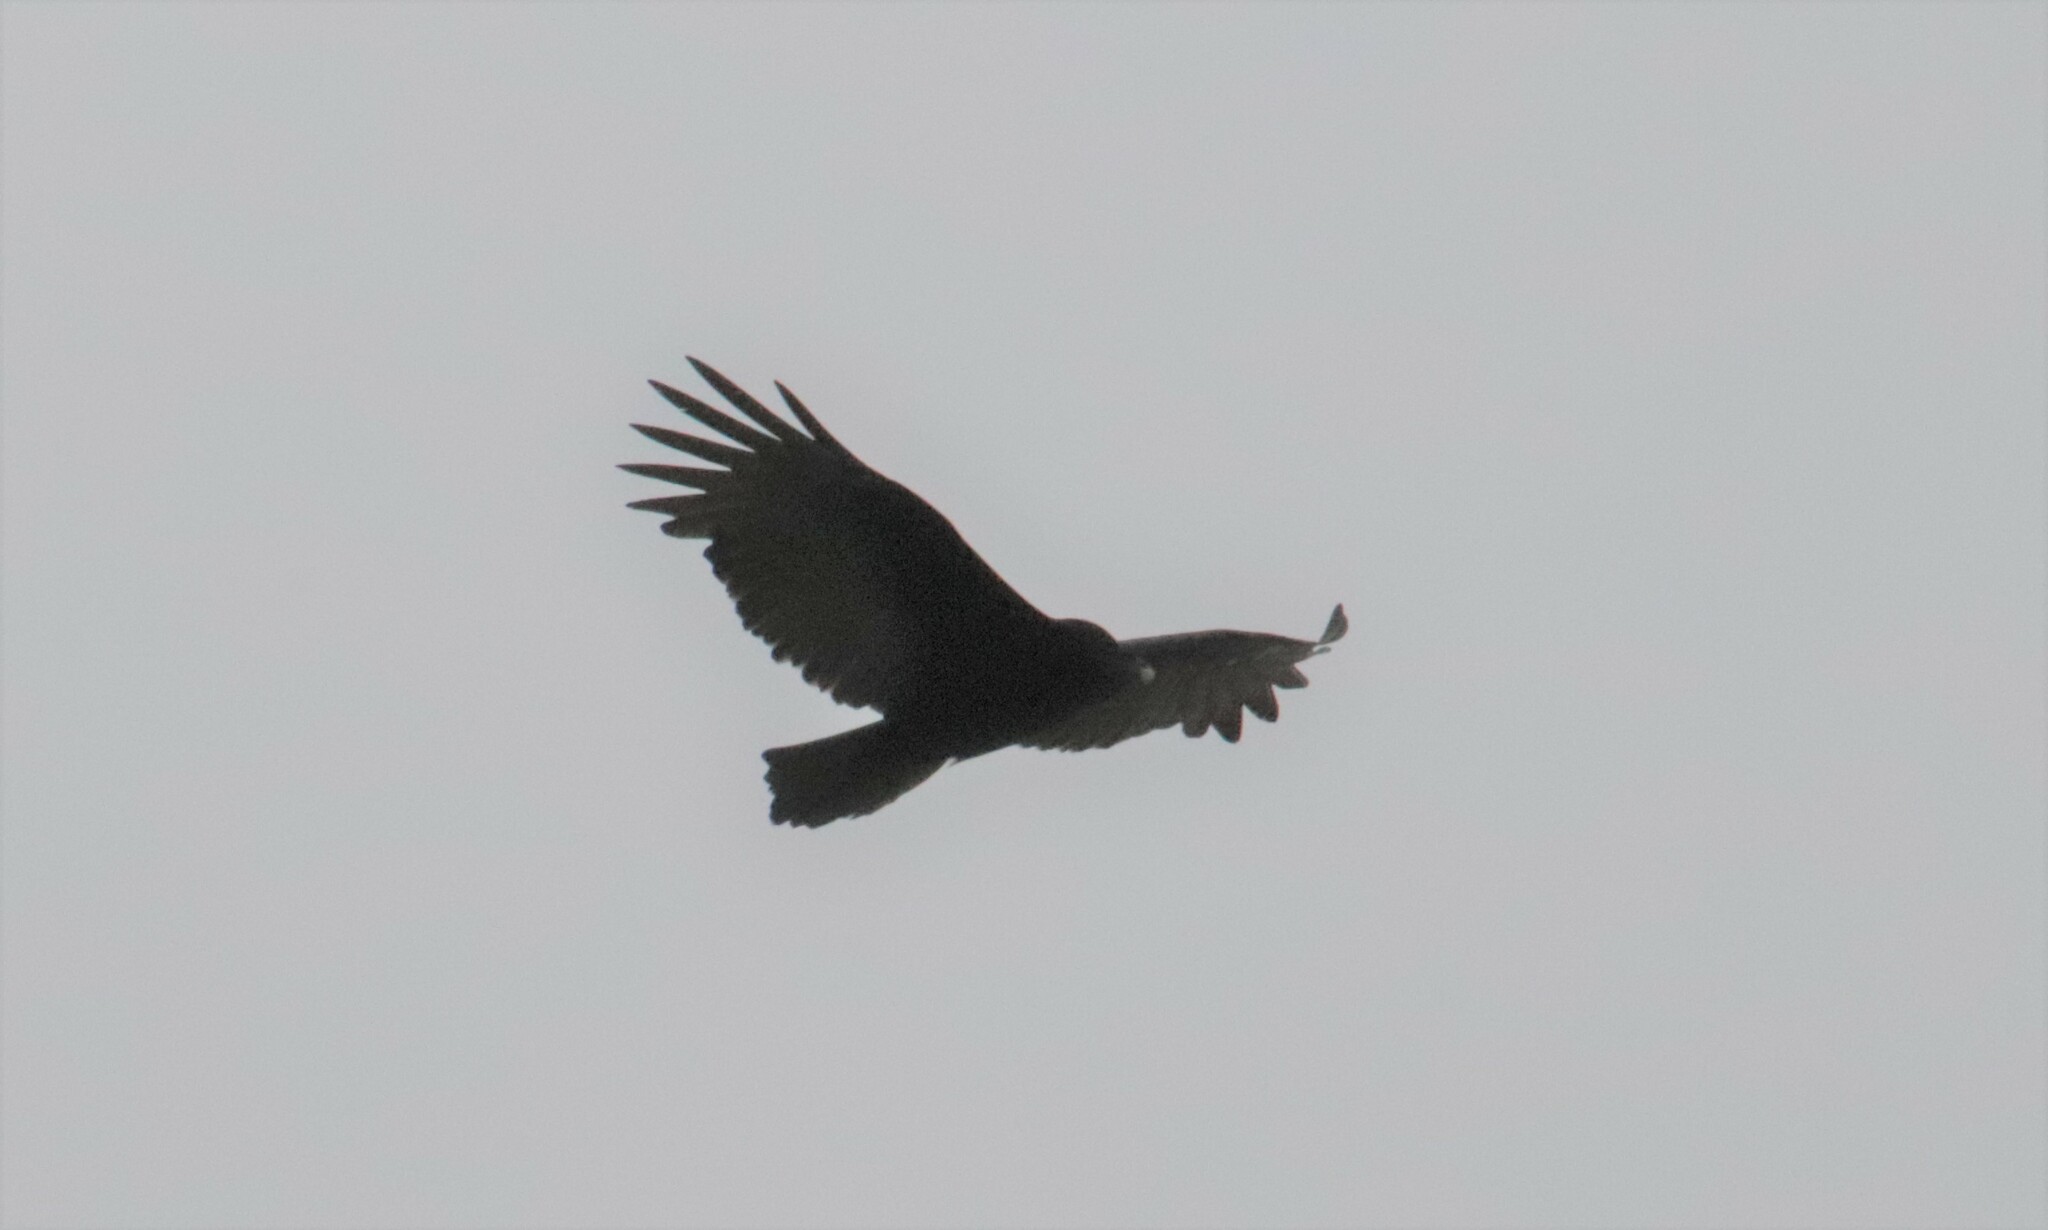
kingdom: Animalia
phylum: Chordata
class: Aves
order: Accipitriformes
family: Cathartidae
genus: Cathartes
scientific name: Cathartes aura
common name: Turkey vulture
